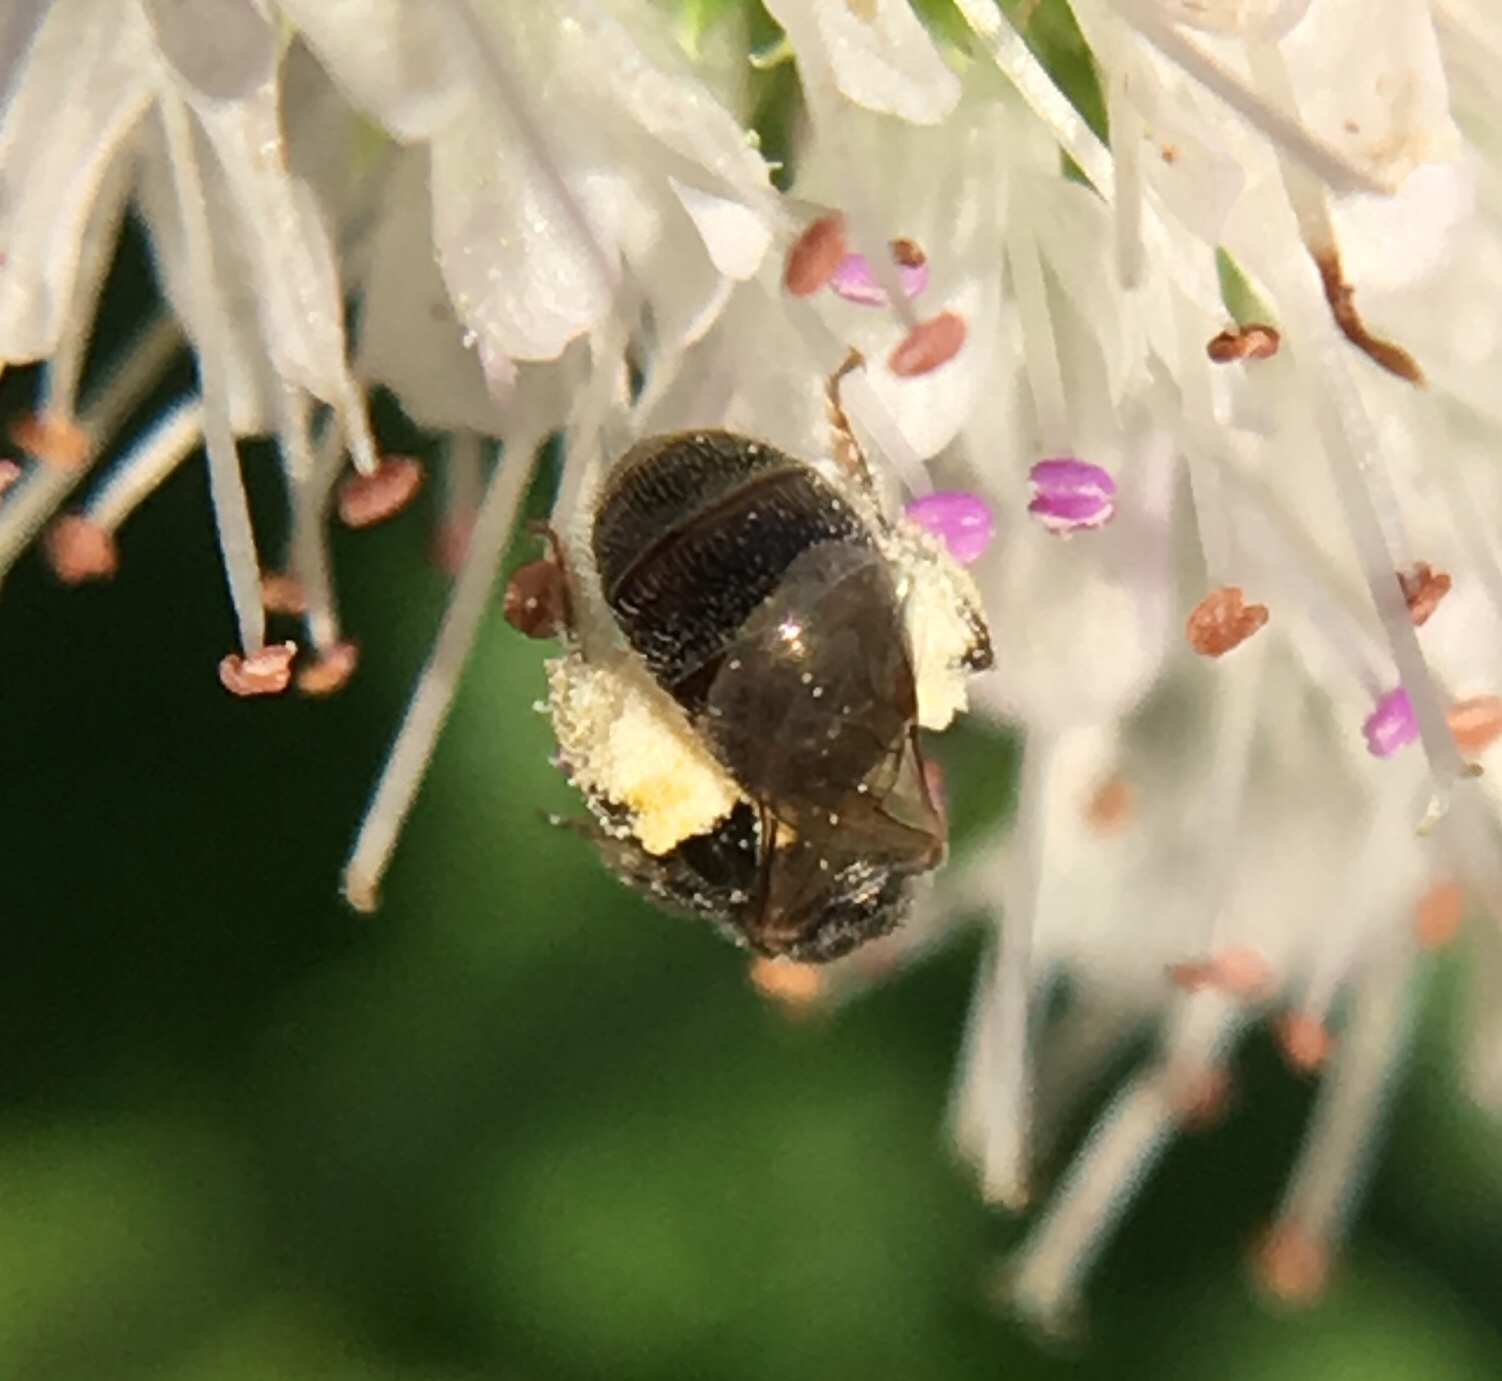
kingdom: Animalia
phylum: Arthropoda
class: Insecta
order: Hymenoptera
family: Halictidae
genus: Lasioglossum
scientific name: Lasioglossum imitatum
